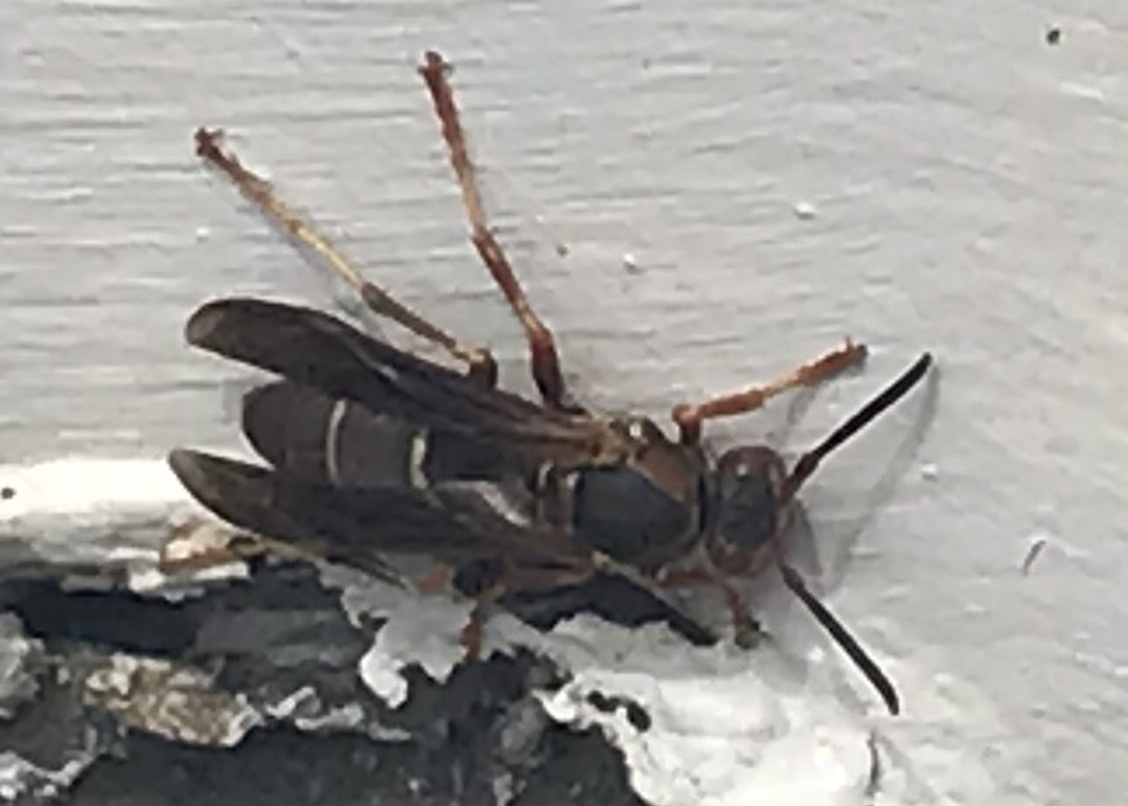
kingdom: Animalia
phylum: Arthropoda
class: Insecta
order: Hymenoptera
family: Eumenidae
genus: Polistes
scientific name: Polistes fuscatus
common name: Dark paper wasp
